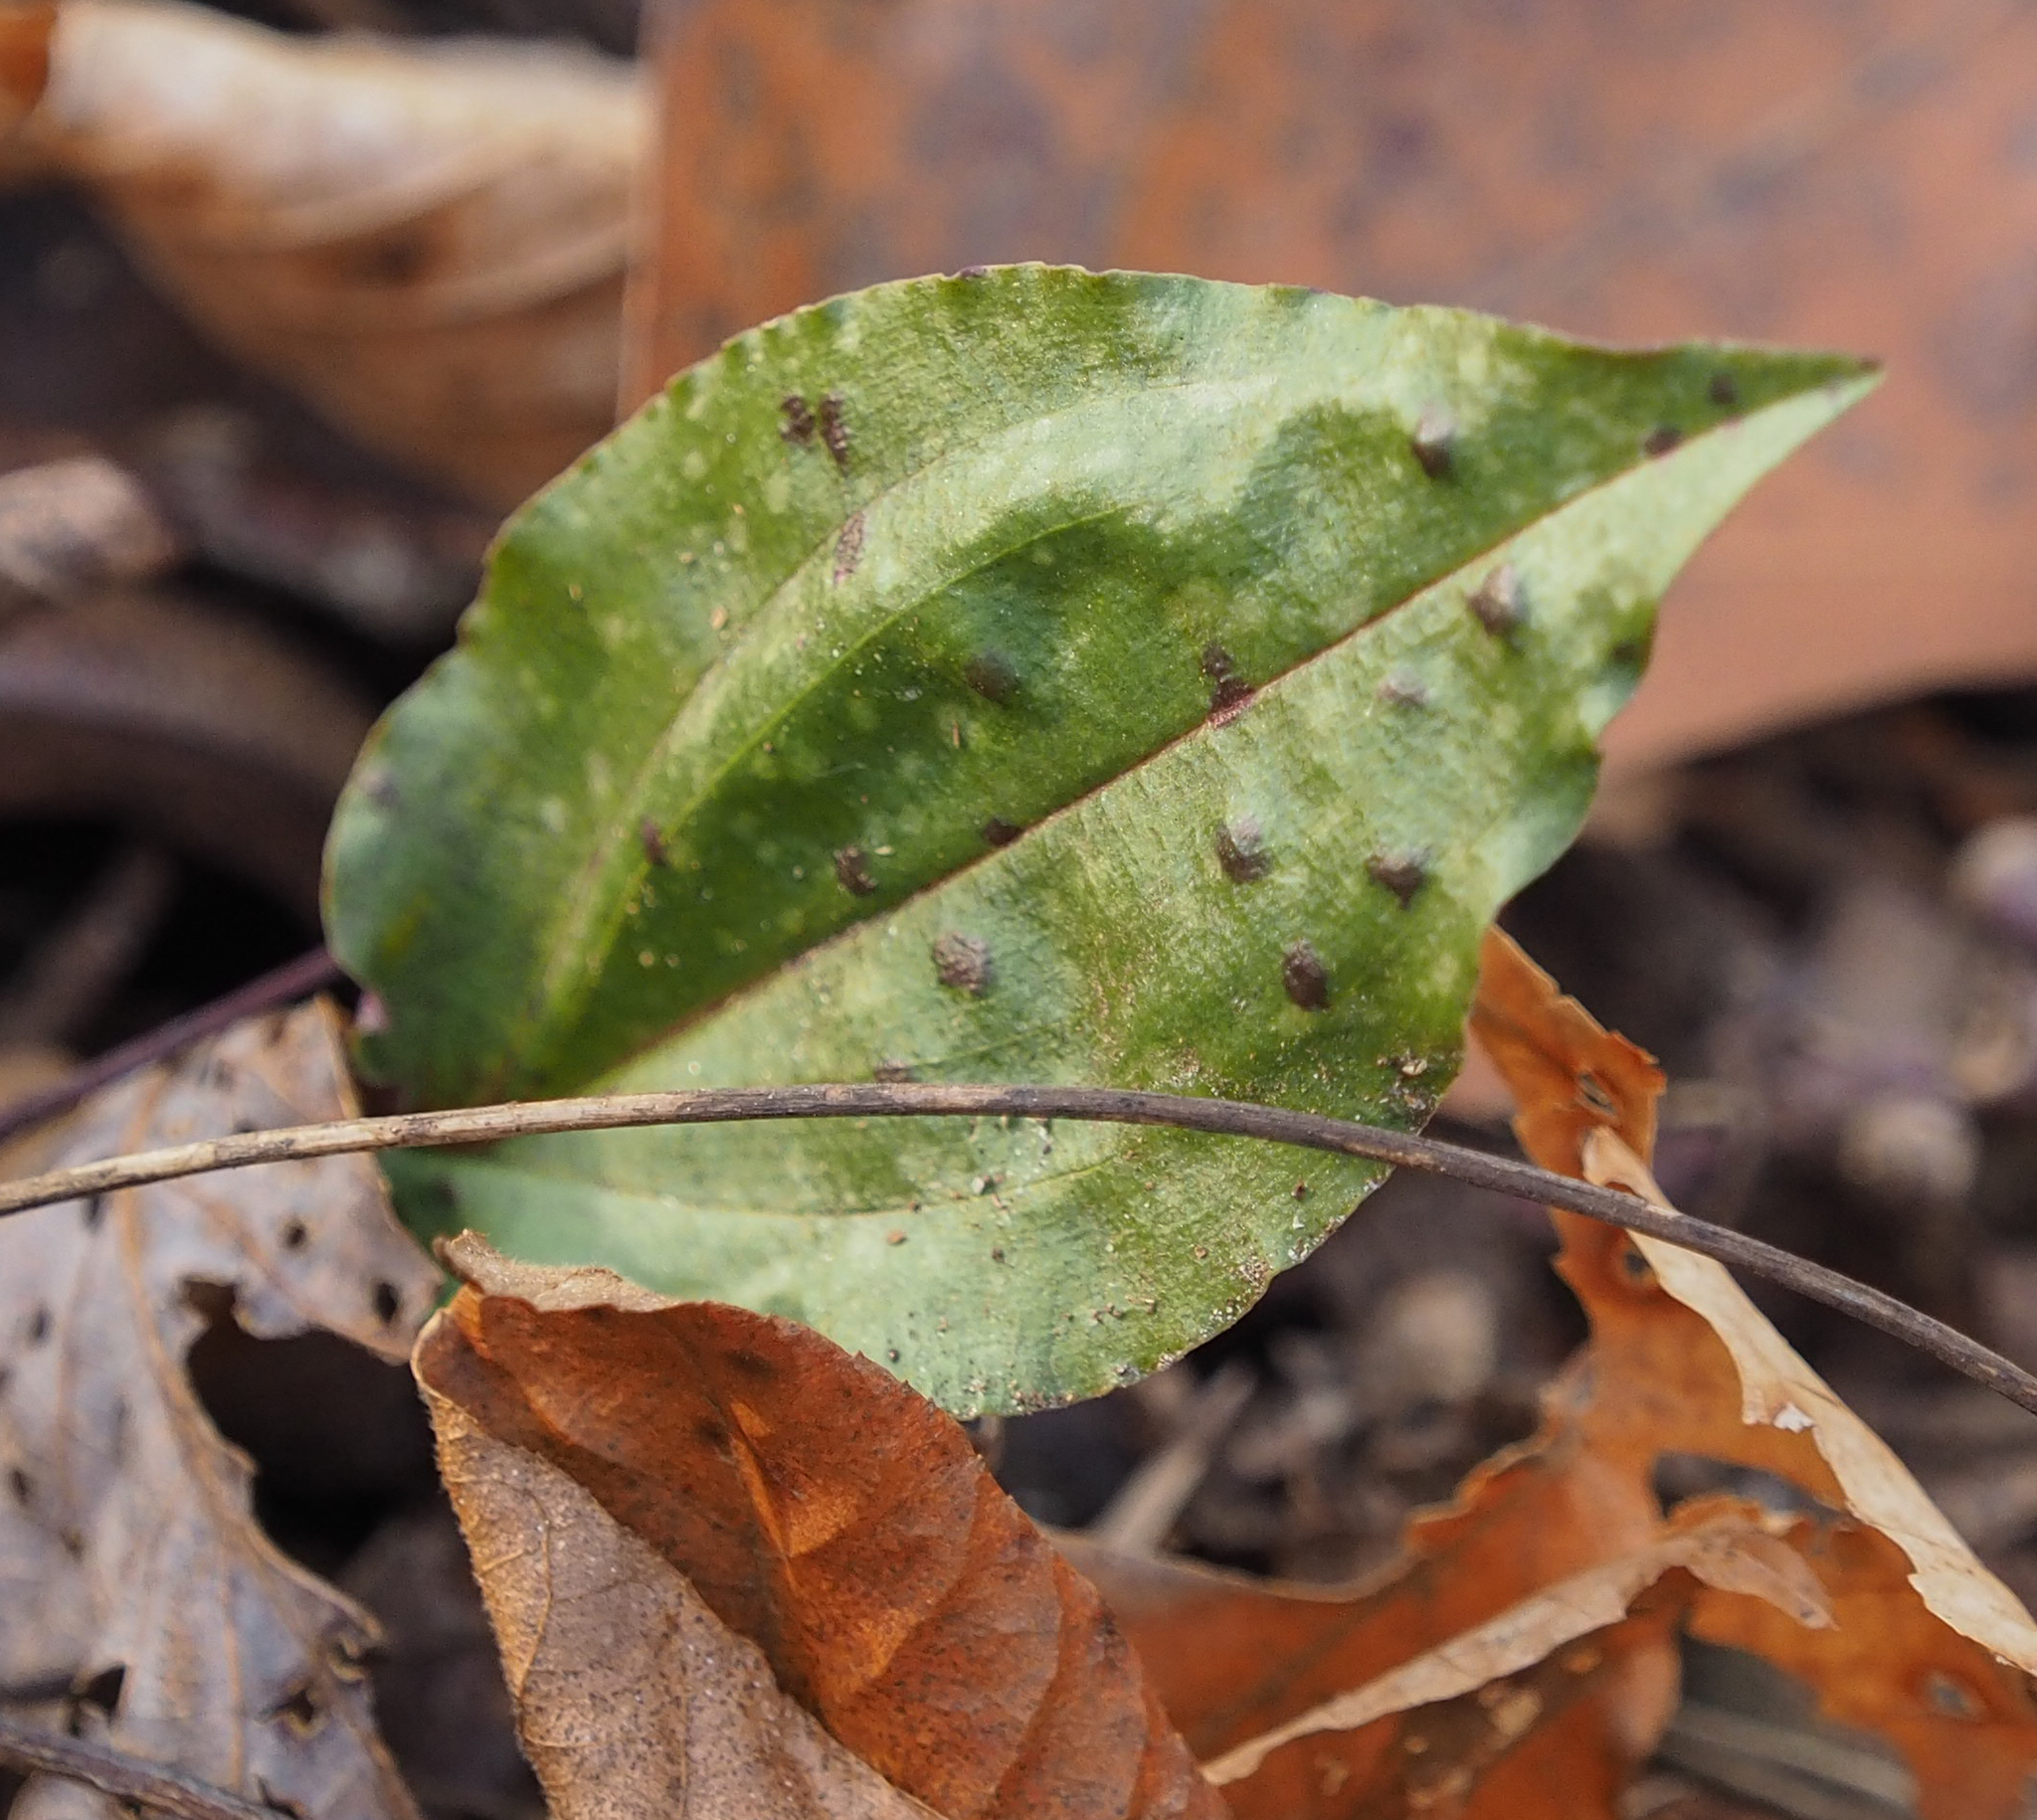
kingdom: Plantae
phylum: Tracheophyta
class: Liliopsida
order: Asparagales
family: Orchidaceae
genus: Tipularia
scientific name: Tipularia discolor
